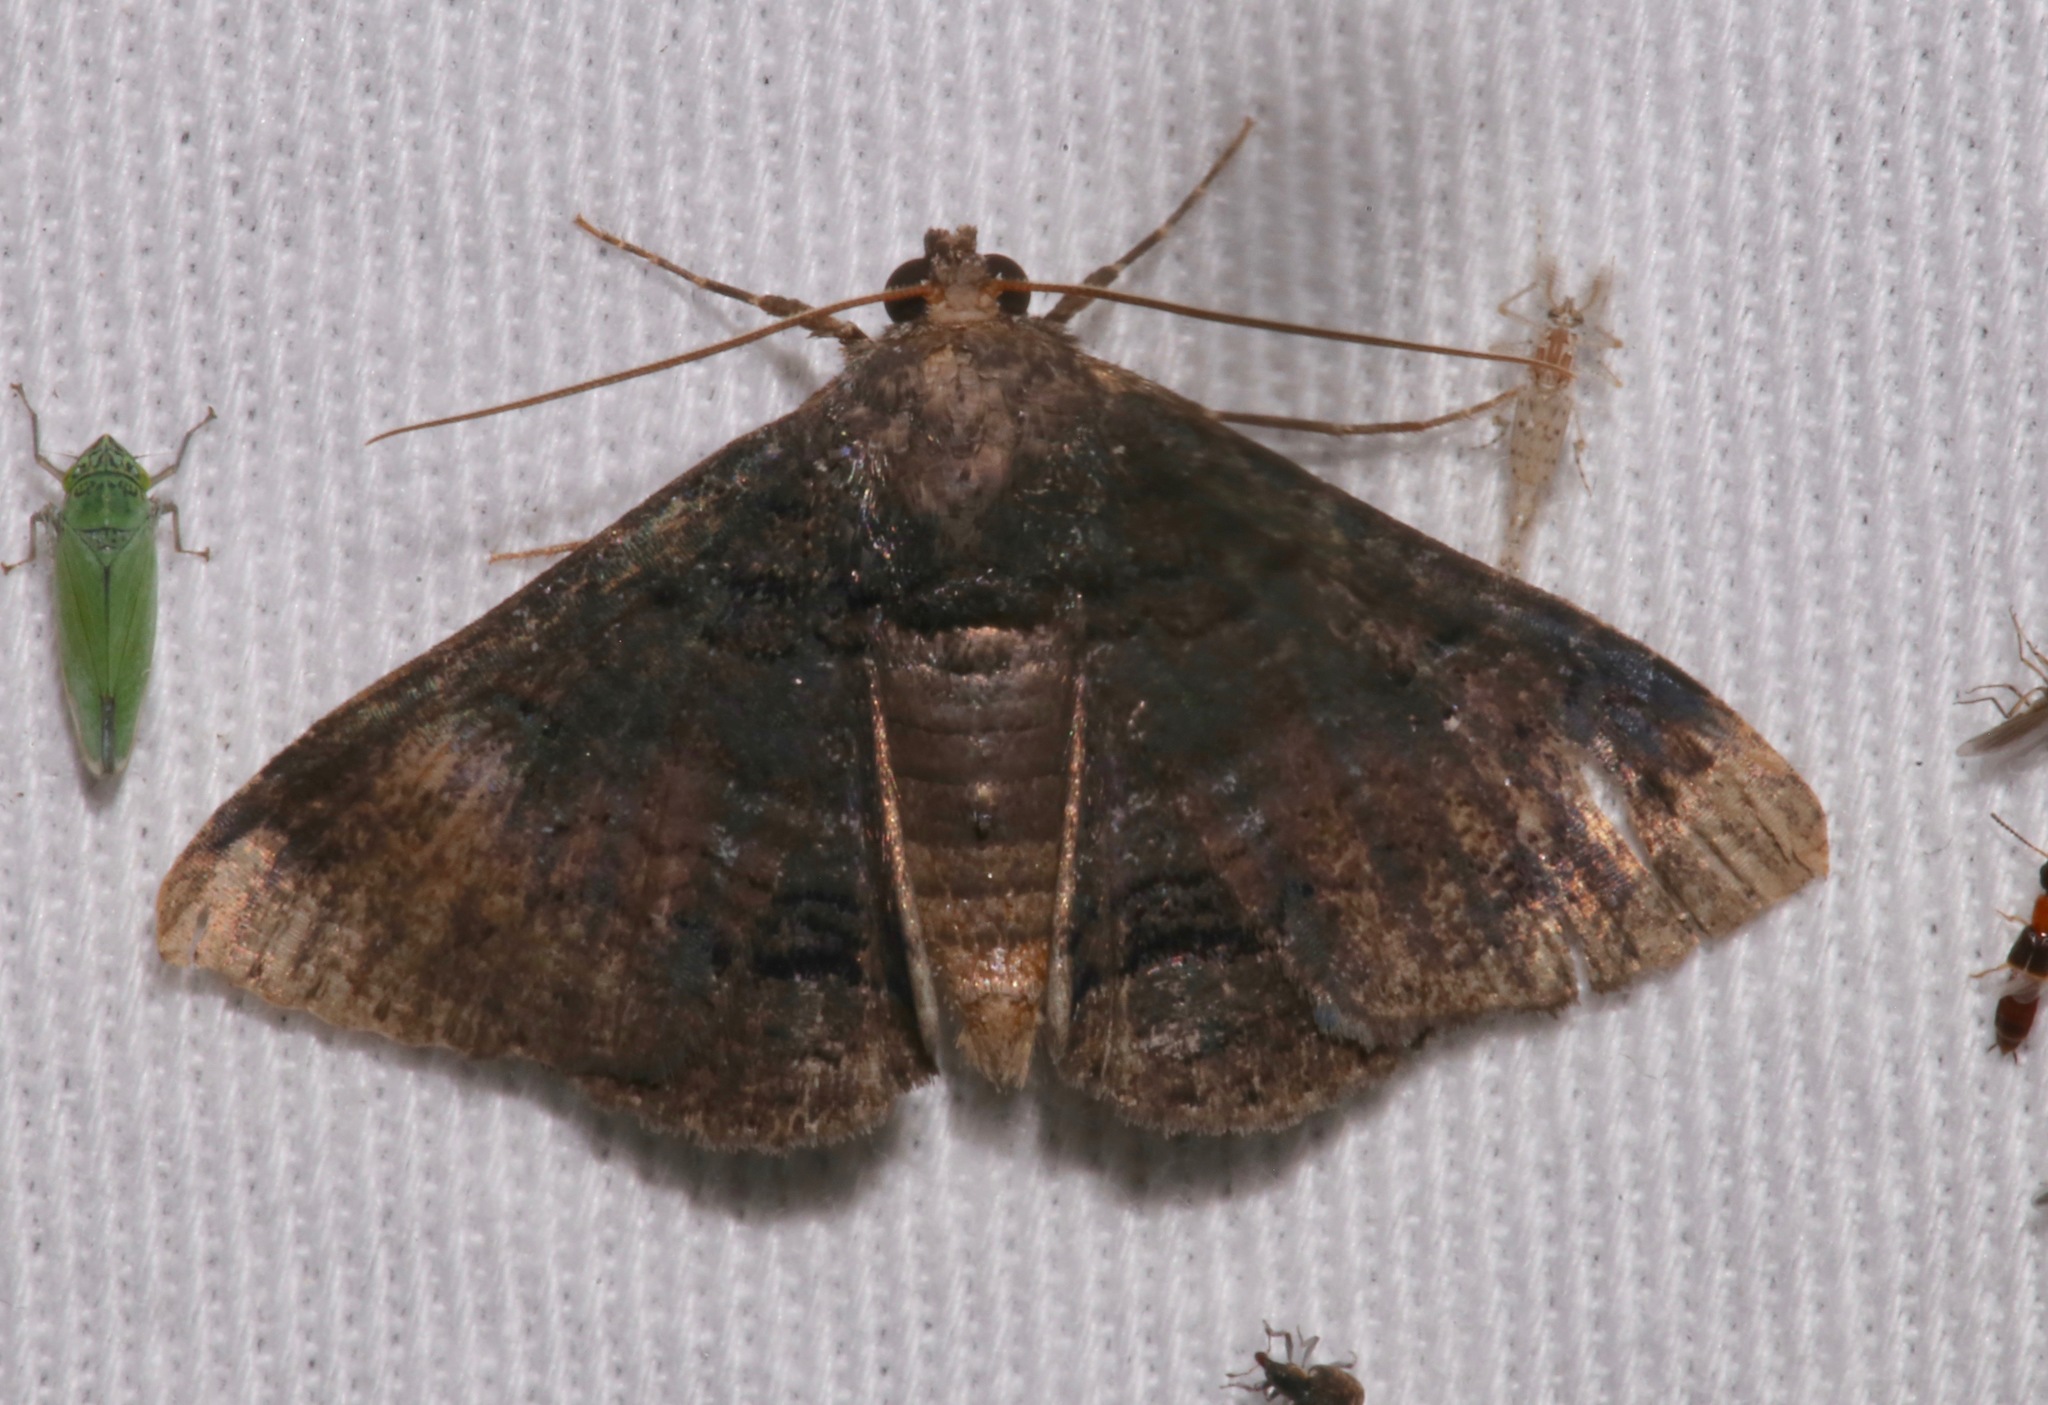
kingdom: Animalia
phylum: Arthropoda
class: Insecta
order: Lepidoptera
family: Erebidae
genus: Zale
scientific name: Zale coracias
